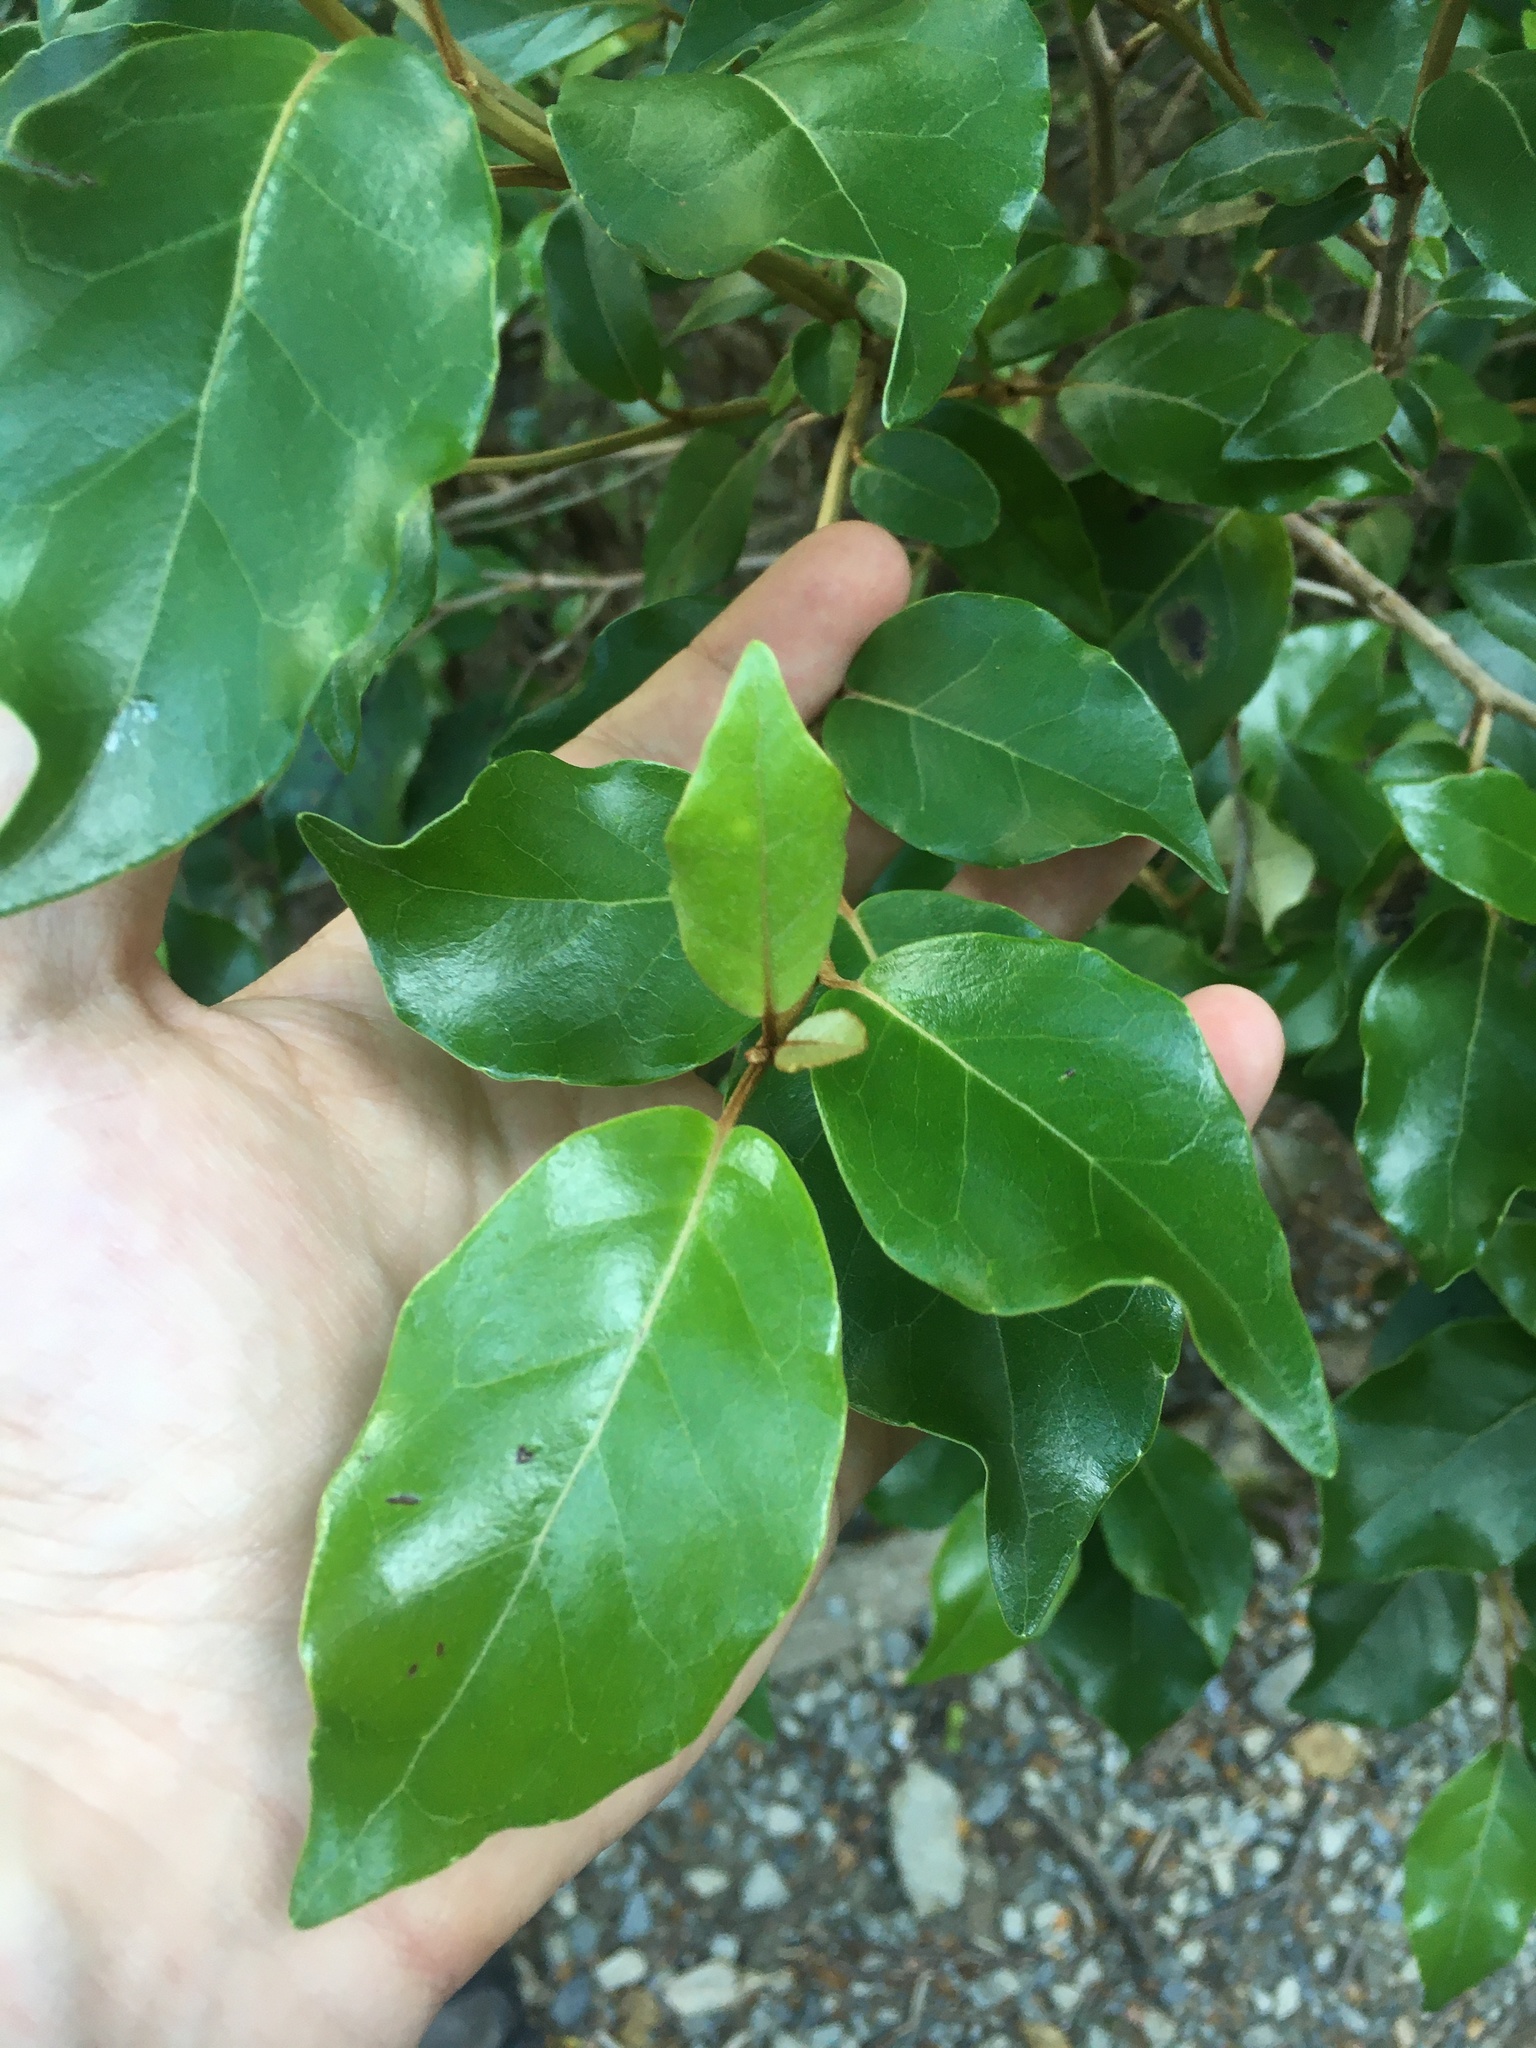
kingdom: Plantae
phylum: Tracheophyta
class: Magnoliopsida
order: Asterales
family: Asteraceae
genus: Olearia
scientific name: Olearia arborescens
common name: Glossy tree daisy
